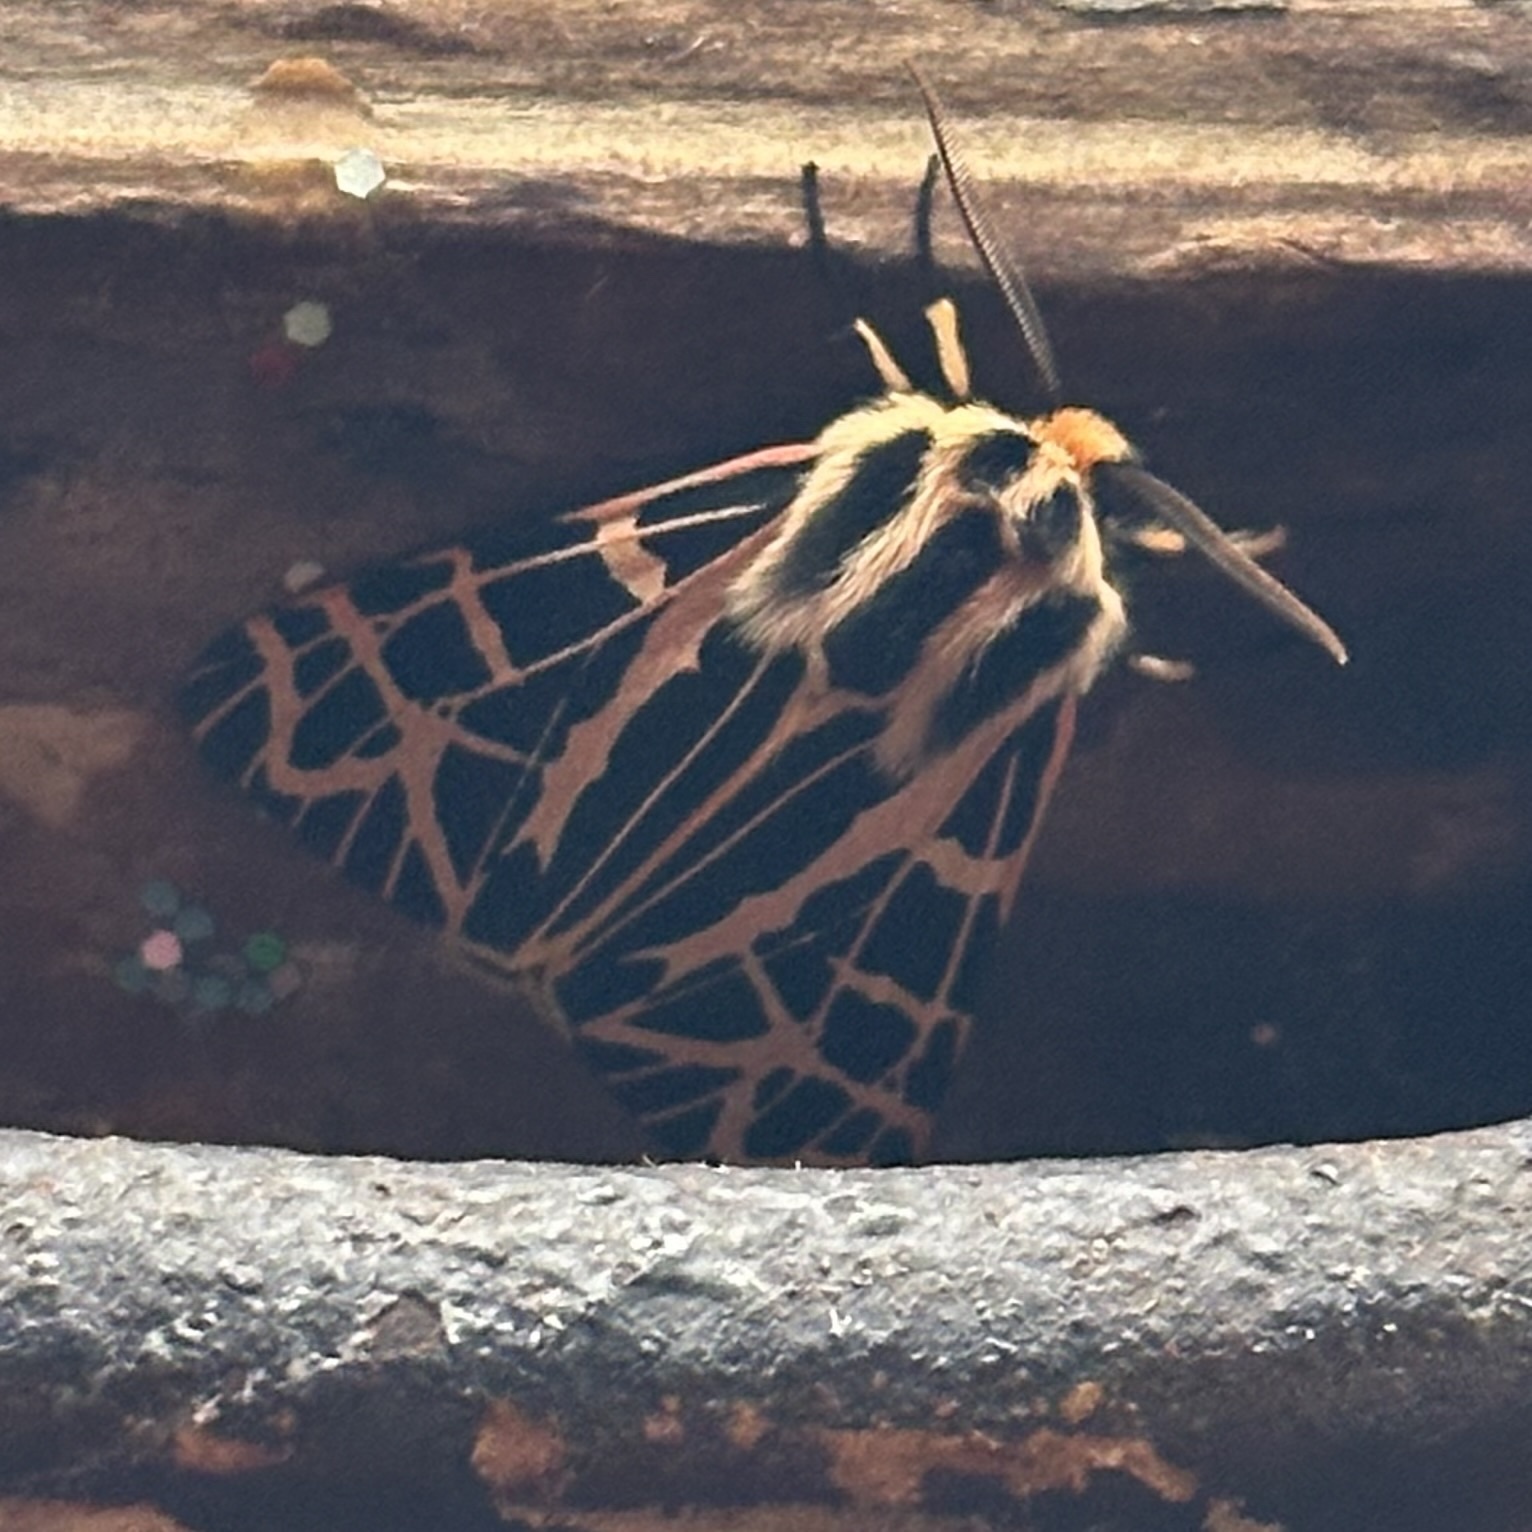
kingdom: Animalia
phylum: Arthropoda
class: Insecta
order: Lepidoptera
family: Erebidae
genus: Apantesis
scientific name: Apantesis
